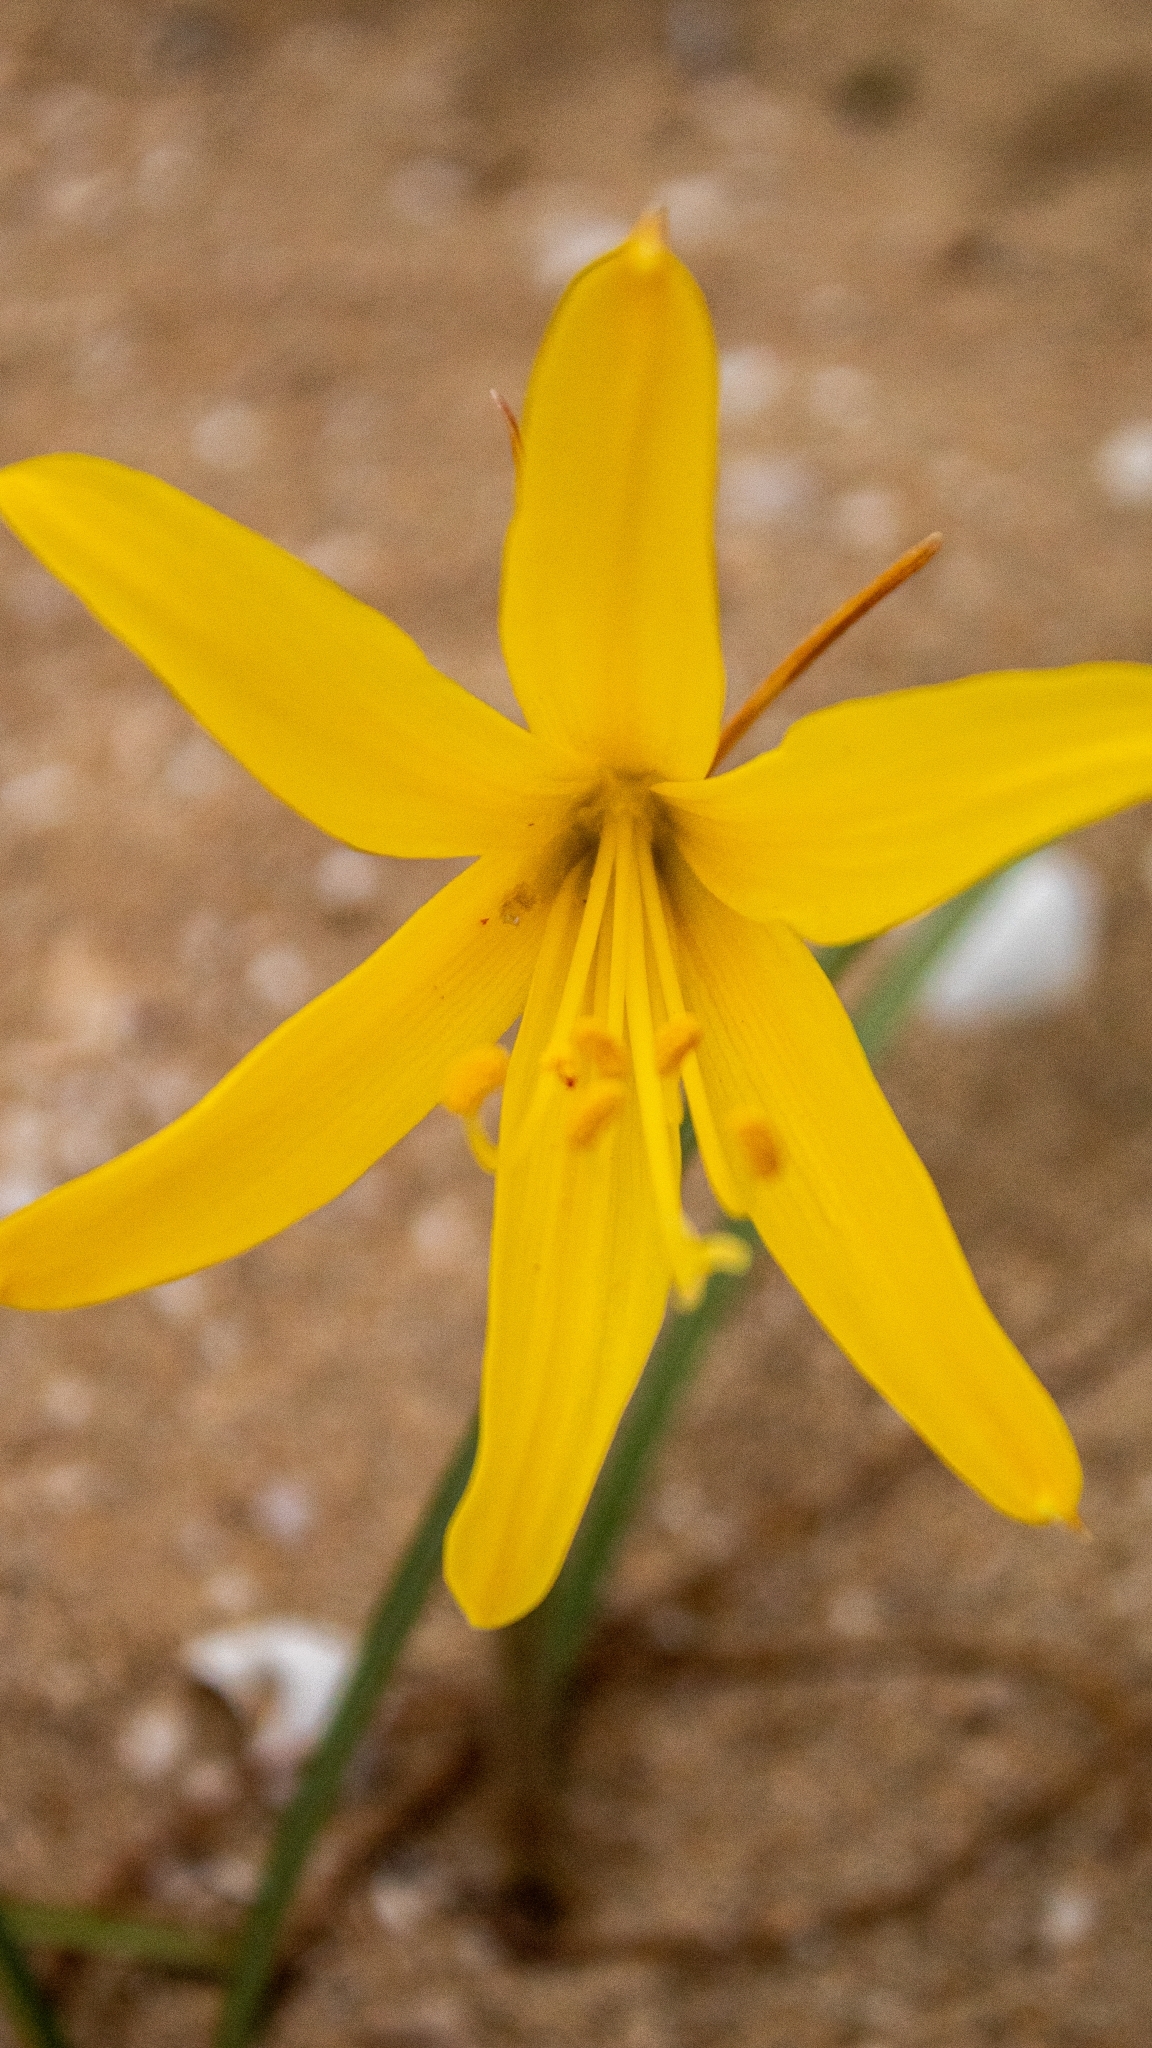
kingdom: Plantae
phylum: Tracheophyta
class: Liliopsida
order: Asparagales
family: Amaryllidaceae
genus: Zephyranthes
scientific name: Zephyranthes bagnoldii
